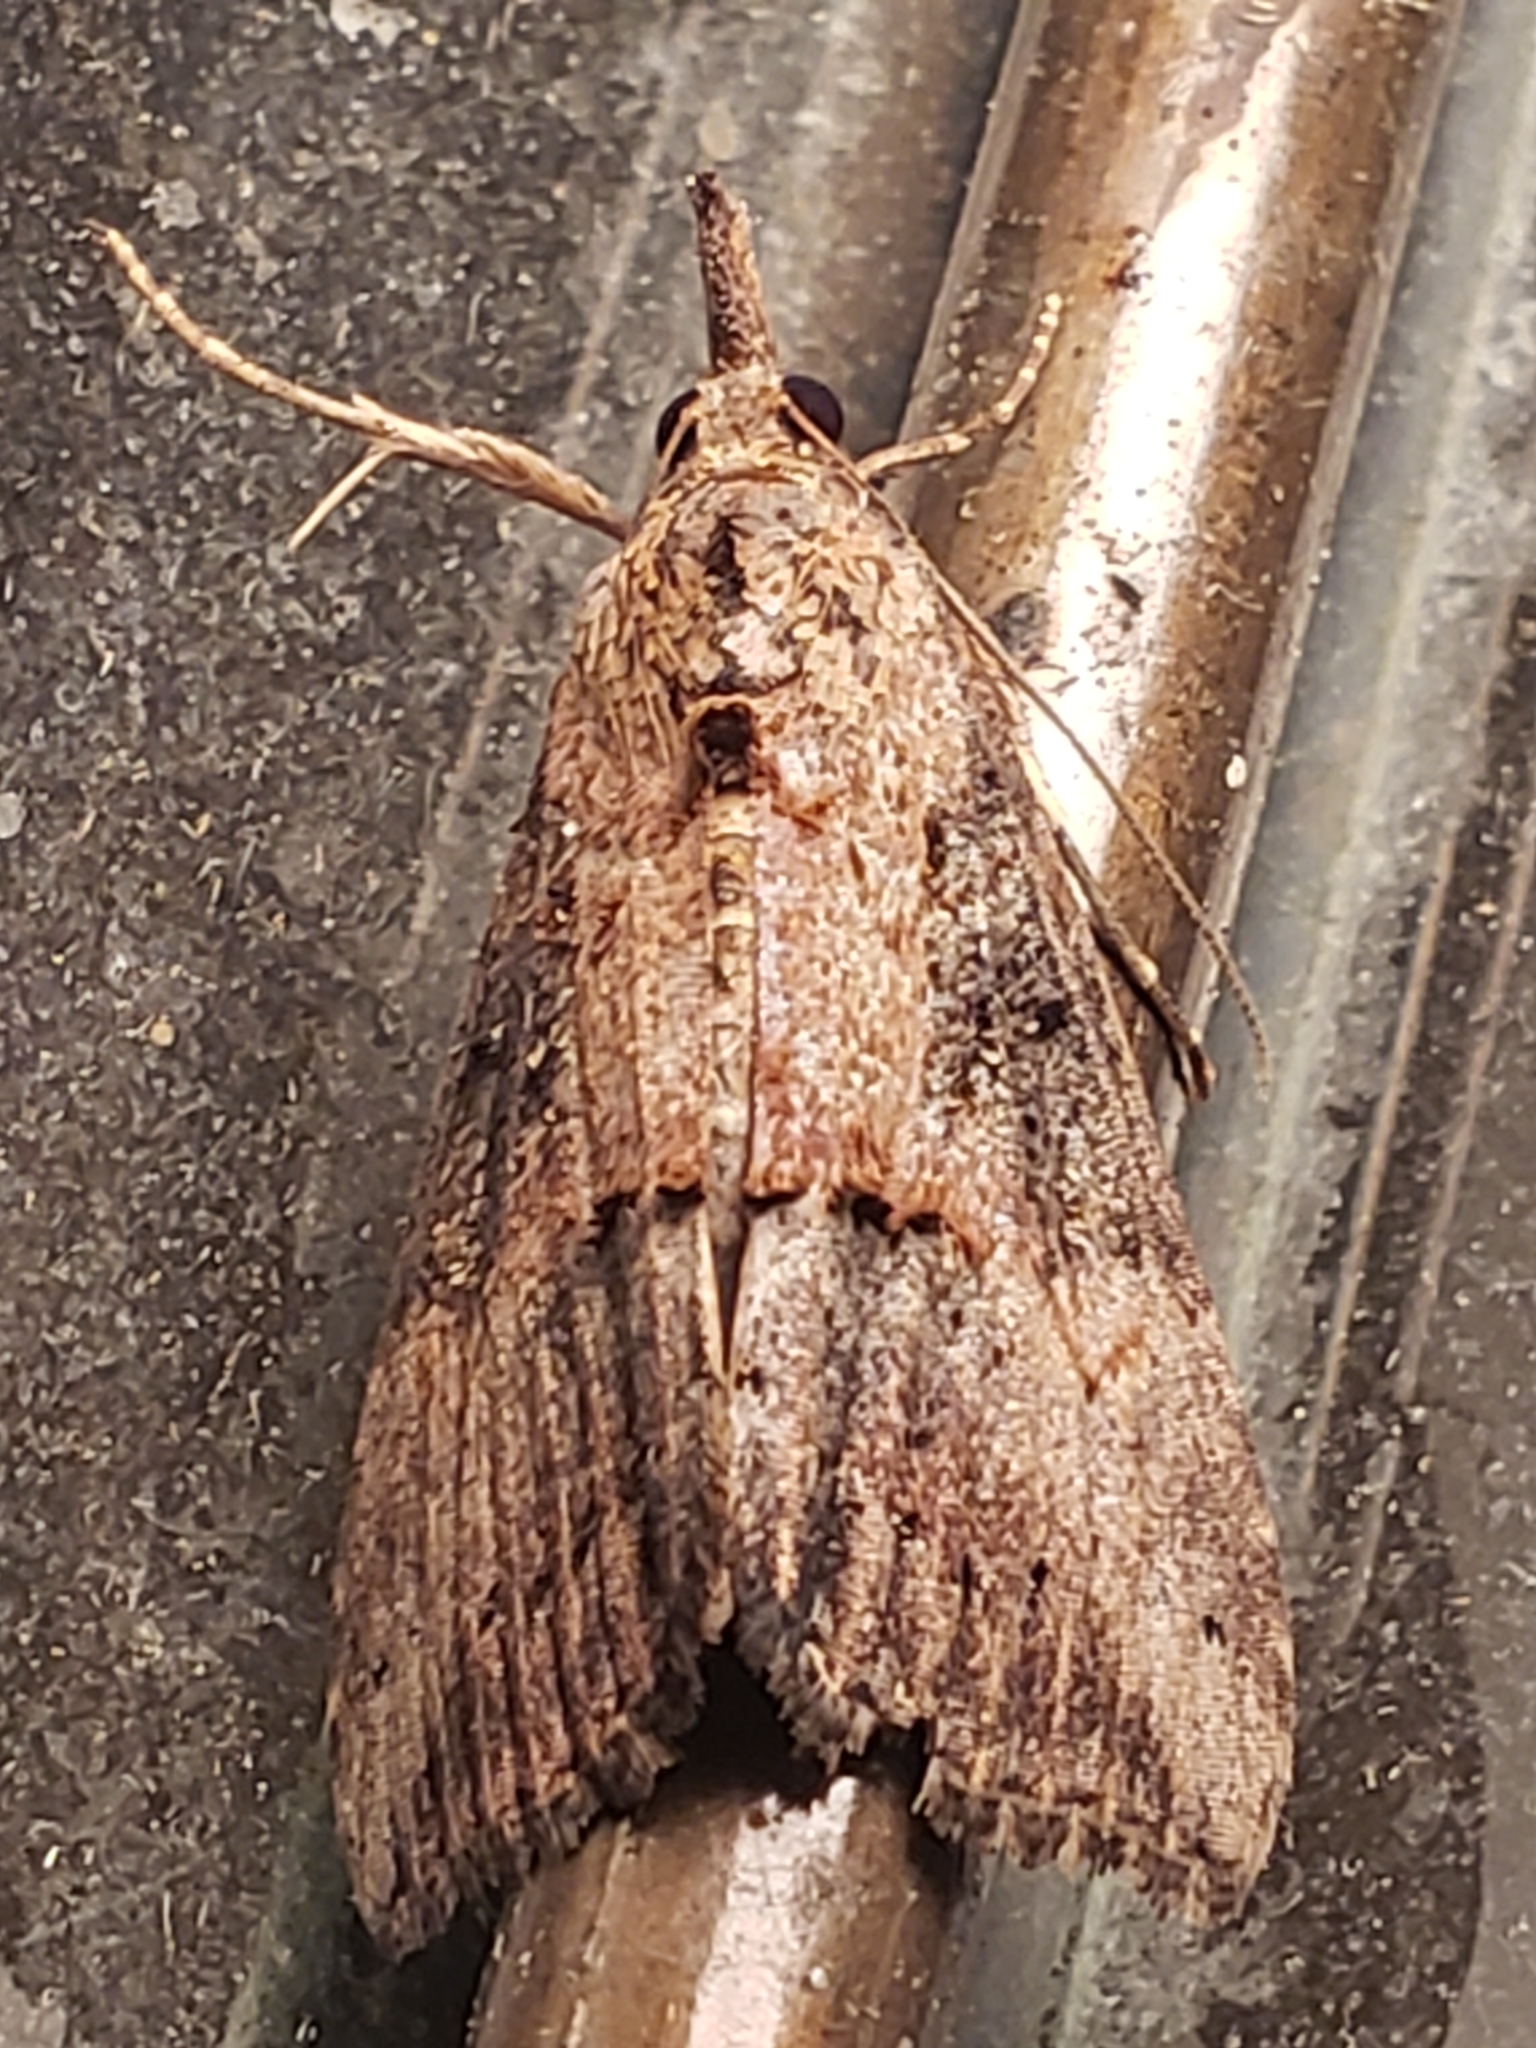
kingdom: Animalia
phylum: Arthropoda
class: Insecta
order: Lepidoptera
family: Erebidae
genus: Hypena
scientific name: Hypena scabra
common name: Green cloverworm
